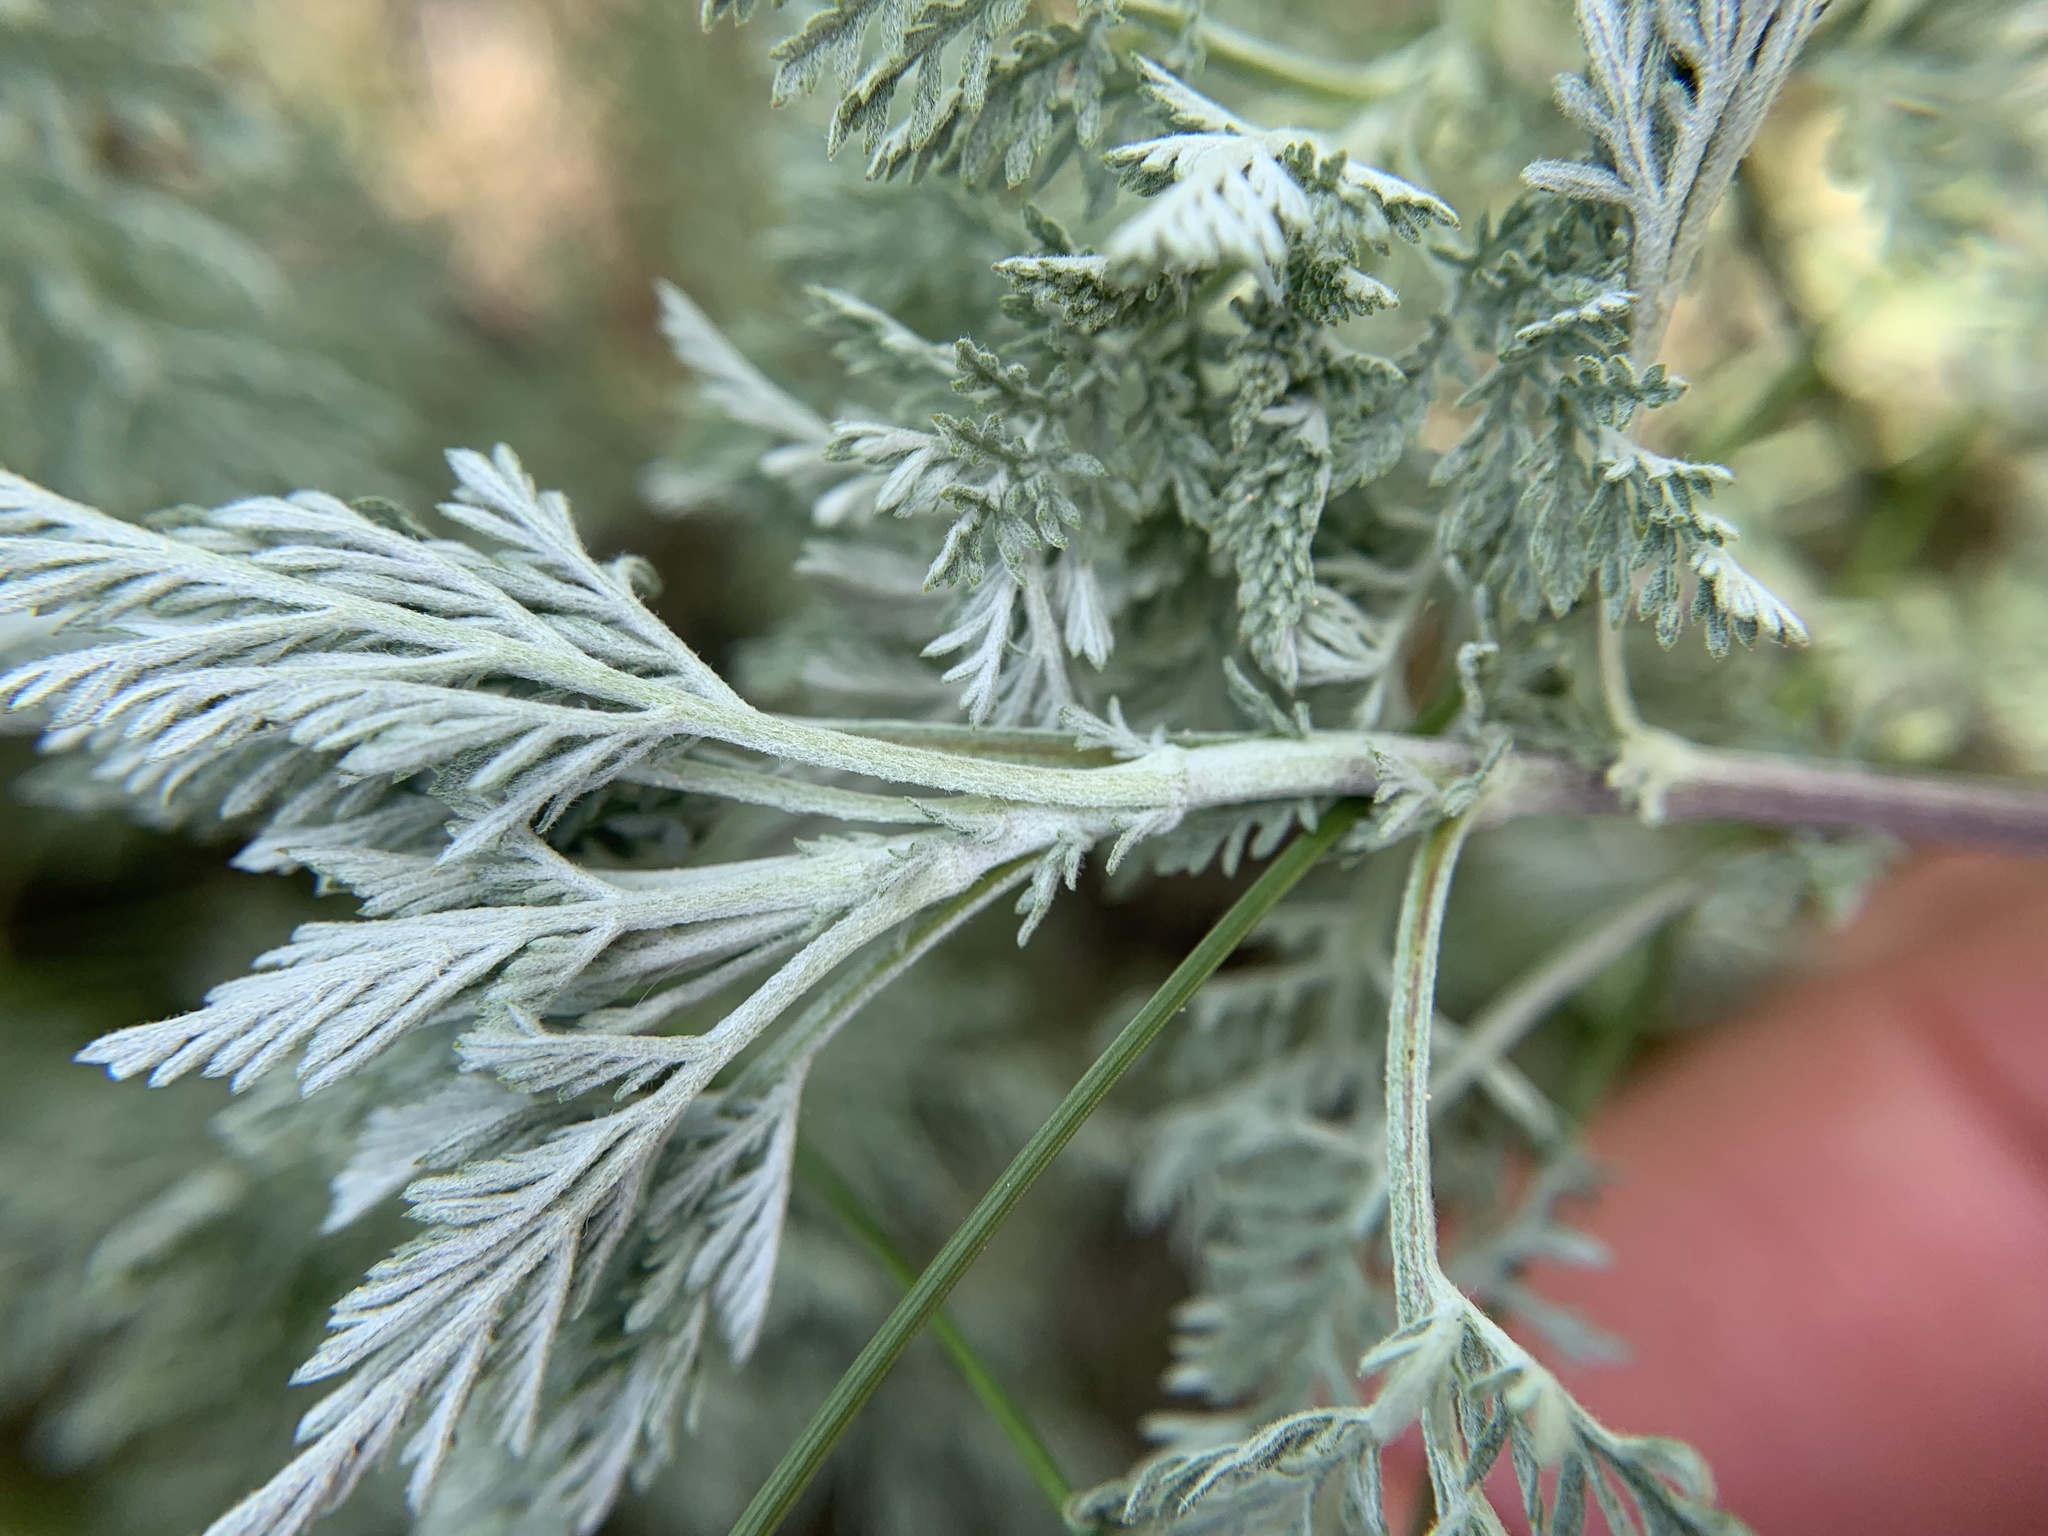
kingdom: Plantae
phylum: Tracheophyta
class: Magnoliopsida
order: Asterales
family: Asteraceae
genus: Artemisia
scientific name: Artemisia pontica
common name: Roman wormwood
